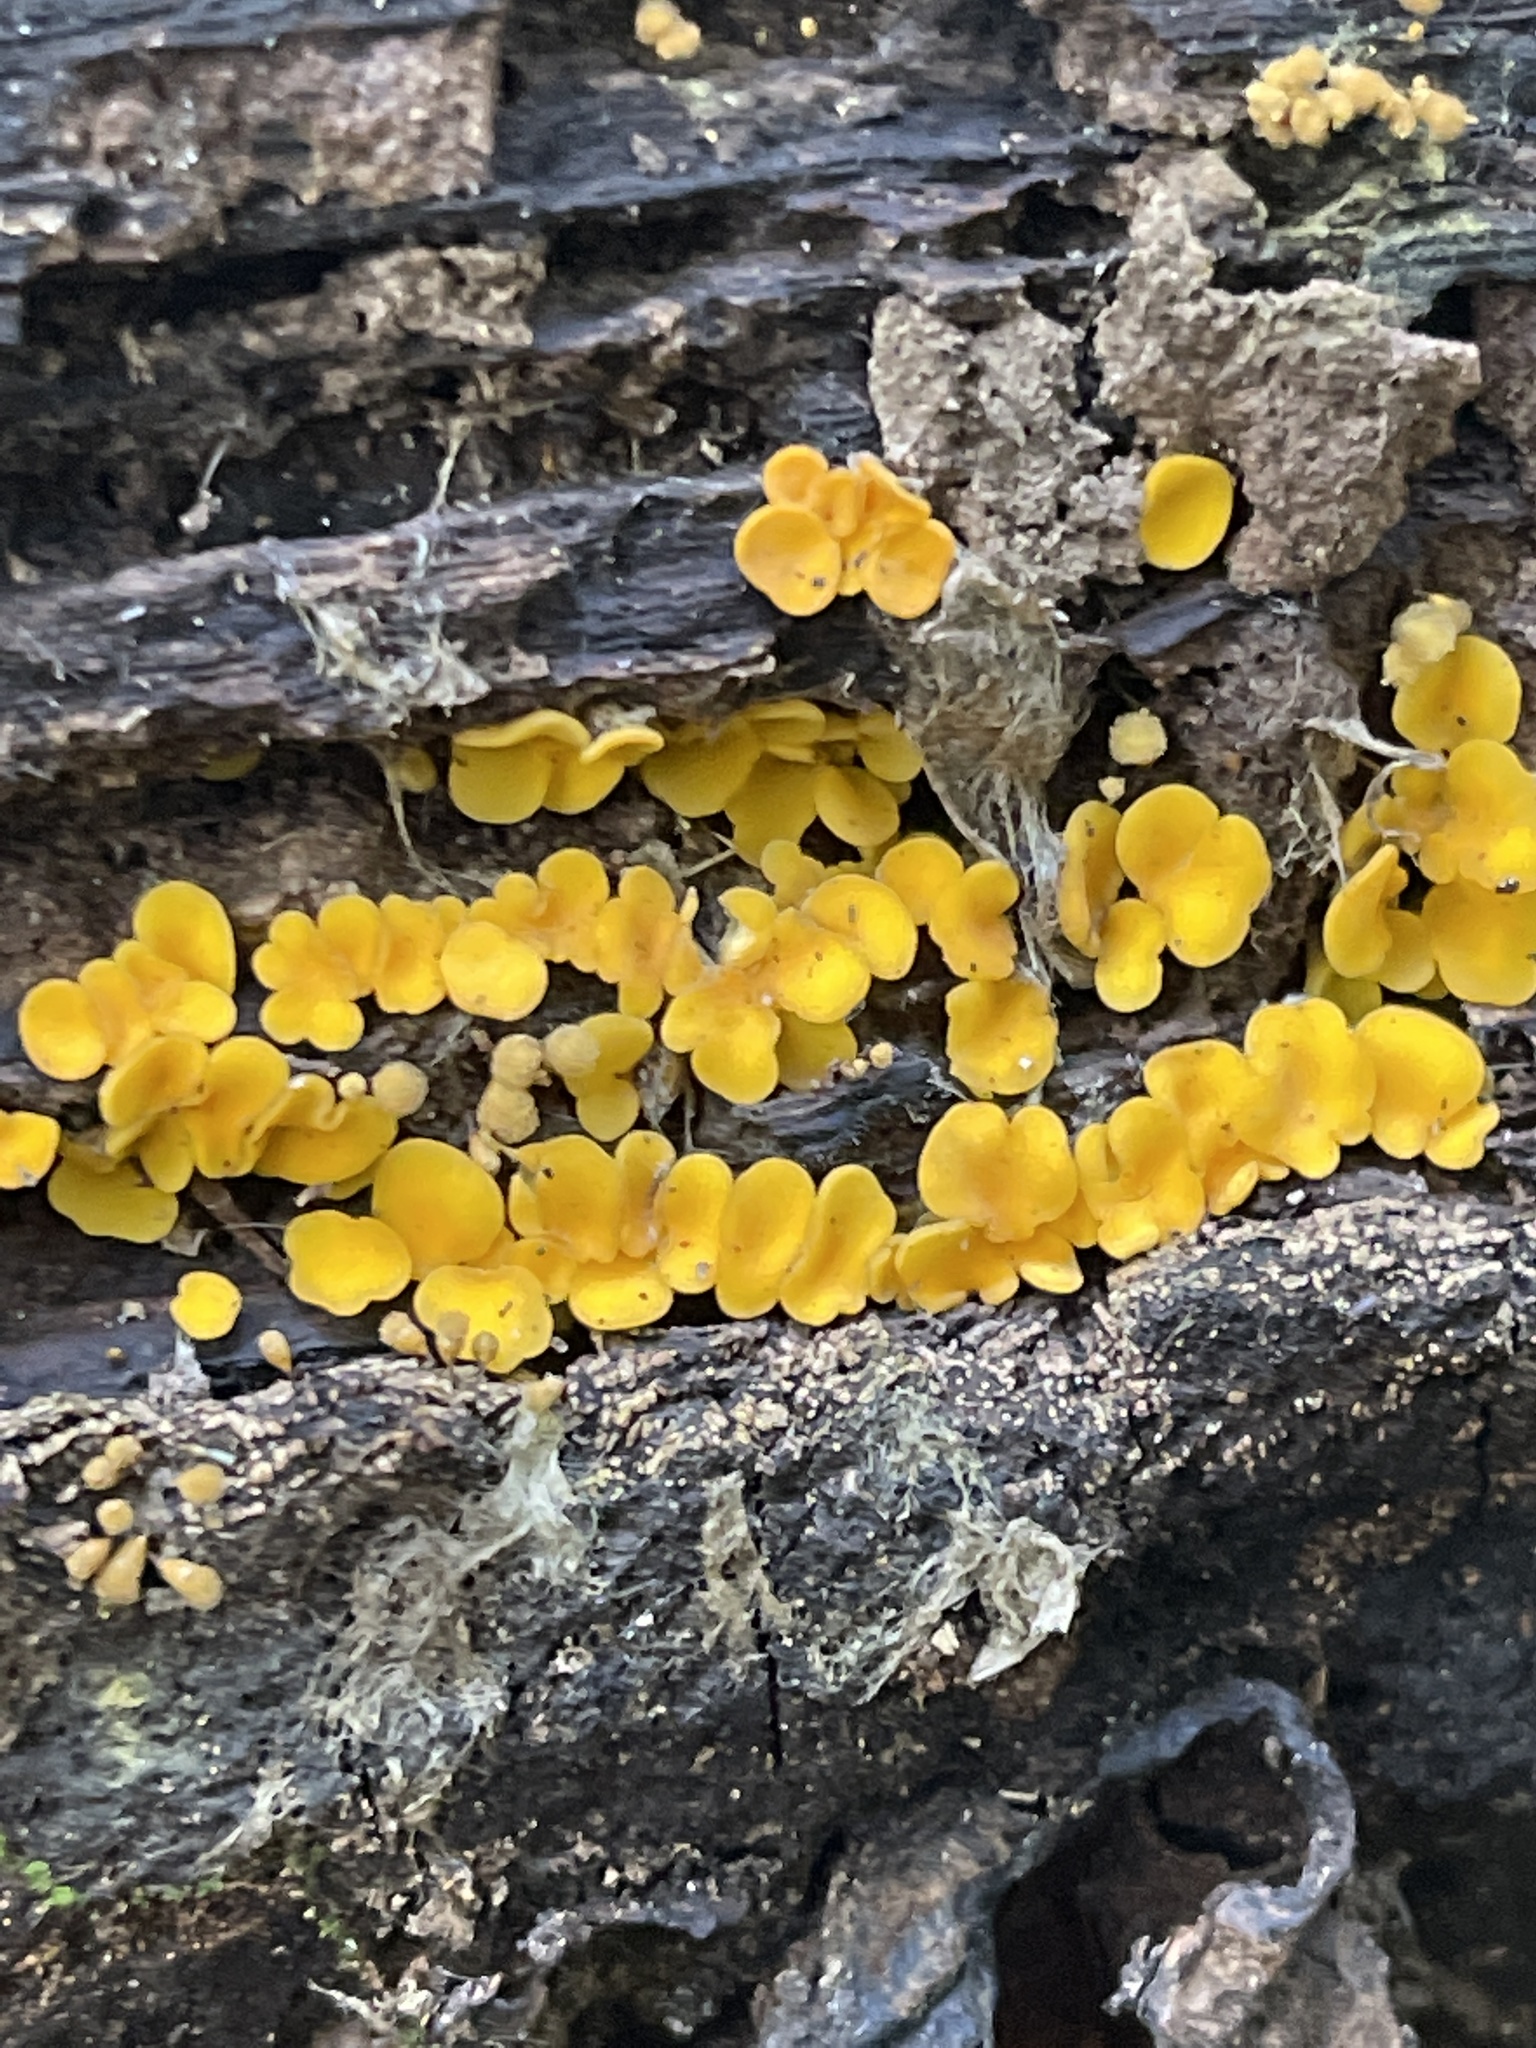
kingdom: Fungi
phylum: Ascomycota
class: Leotiomycetes
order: Helotiales
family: Pezizellaceae
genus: Calycina
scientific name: Calycina citrina
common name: Yellow fairy cups
